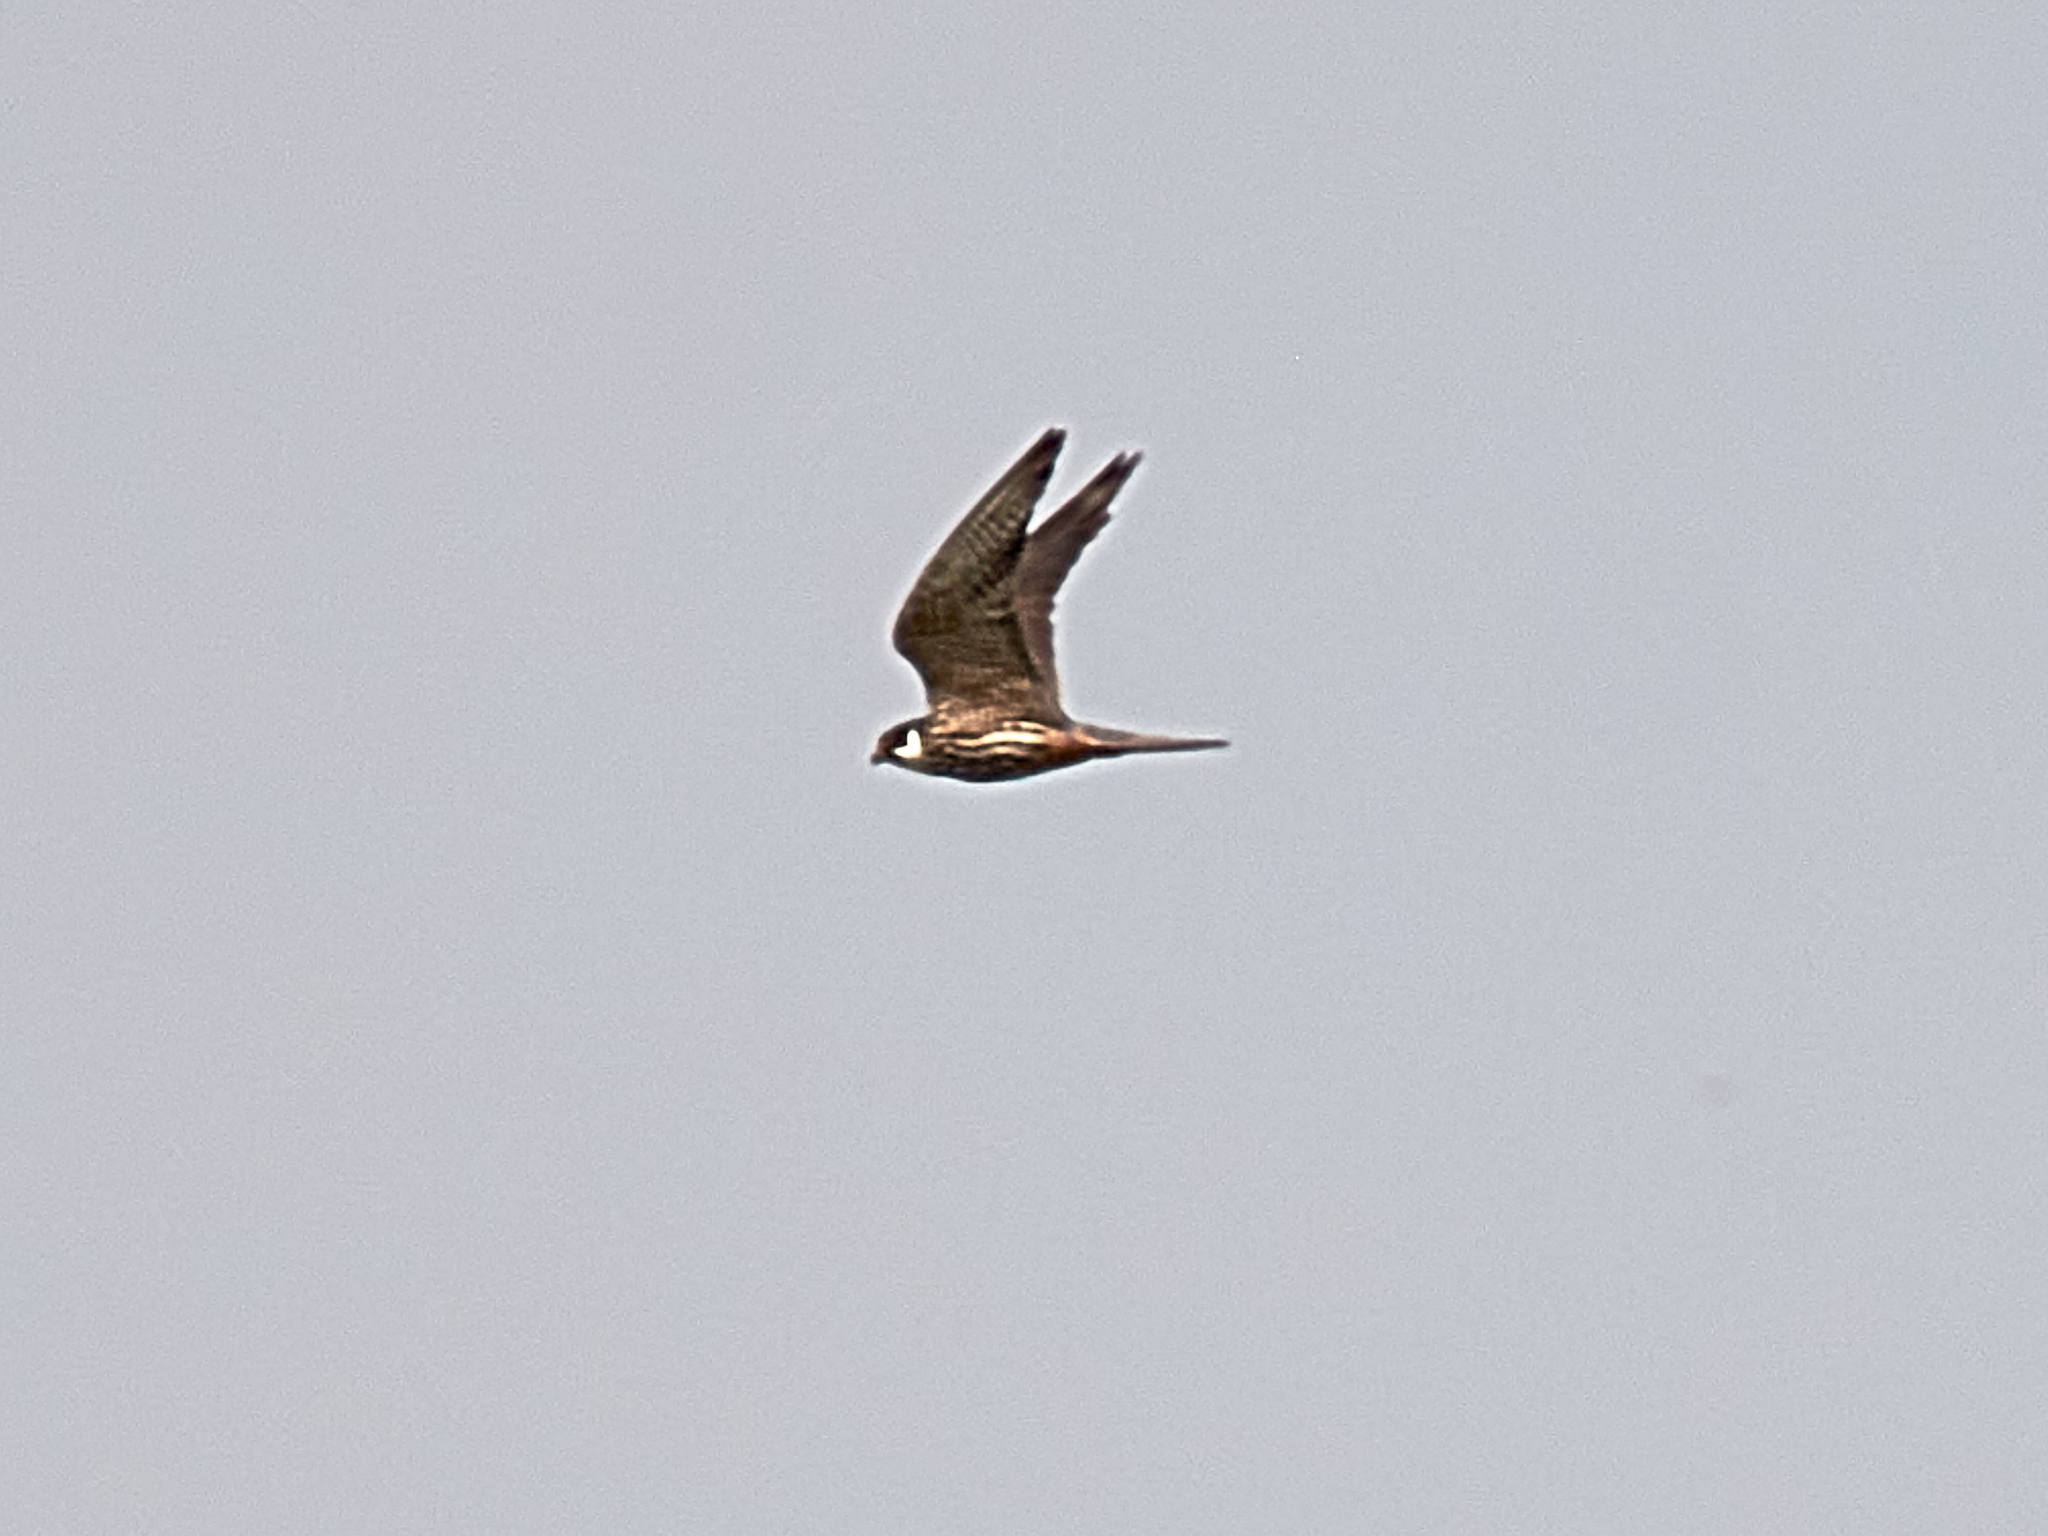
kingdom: Animalia
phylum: Chordata
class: Aves
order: Falconiformes
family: Falconidae
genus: Falco
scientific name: Falco subbuteo
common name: Eurasian hobby
